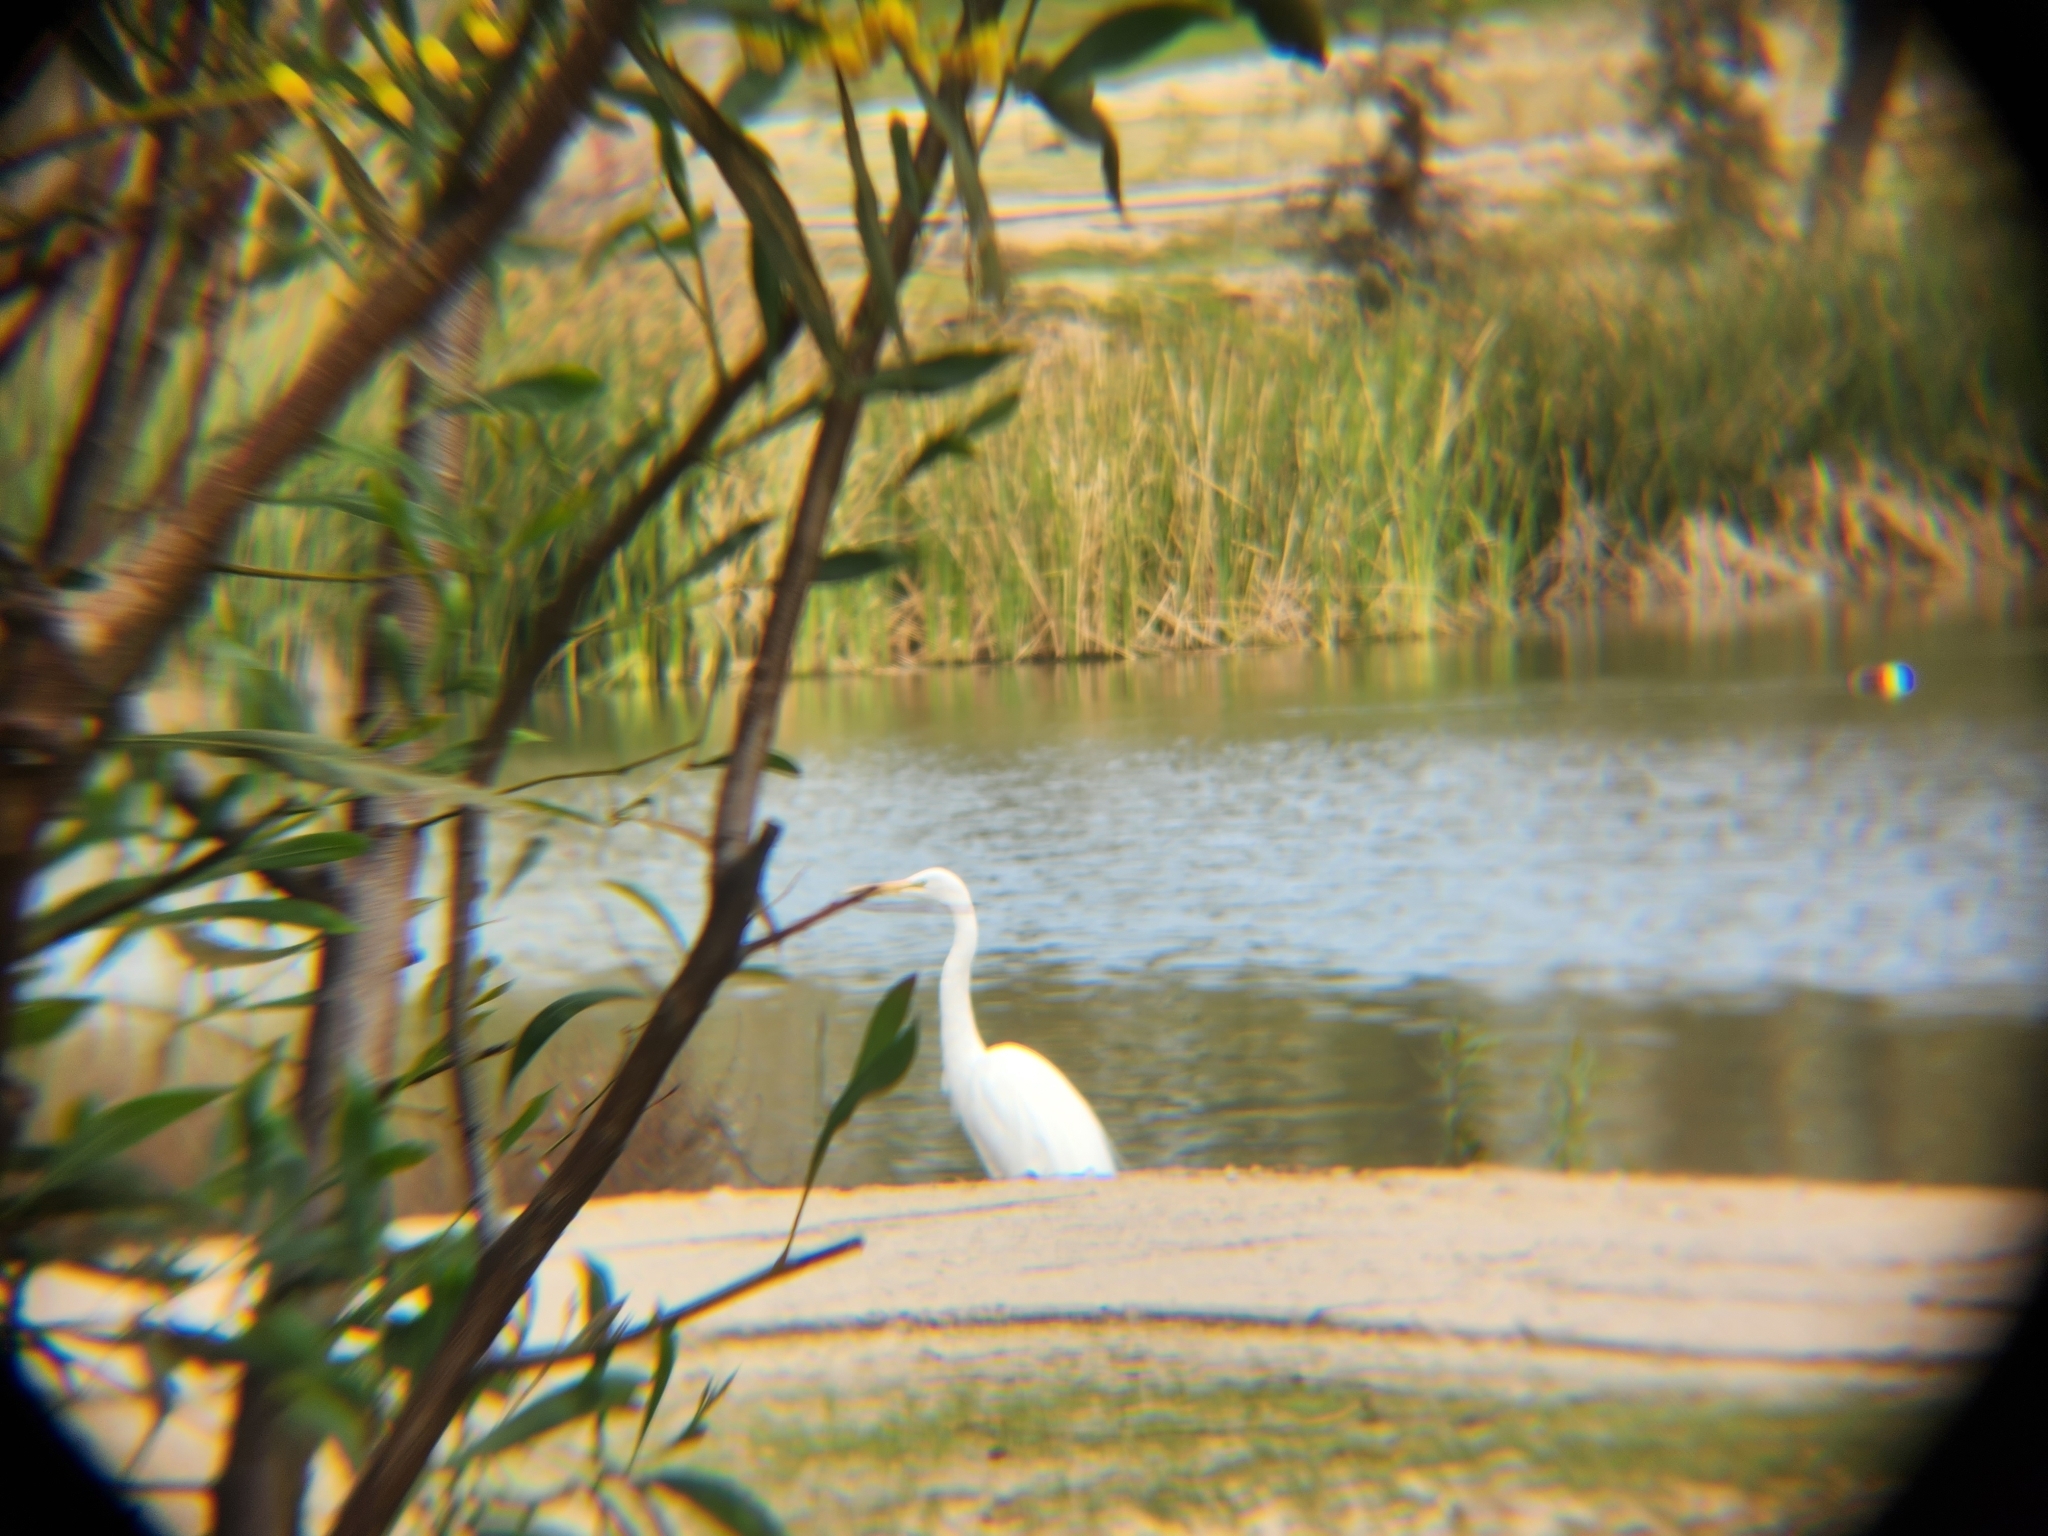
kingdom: Animalia
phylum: Chordata
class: Aves
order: Pelecaniformes
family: Ardeidae
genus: Ardea
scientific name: Ardea alba
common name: Great egret
